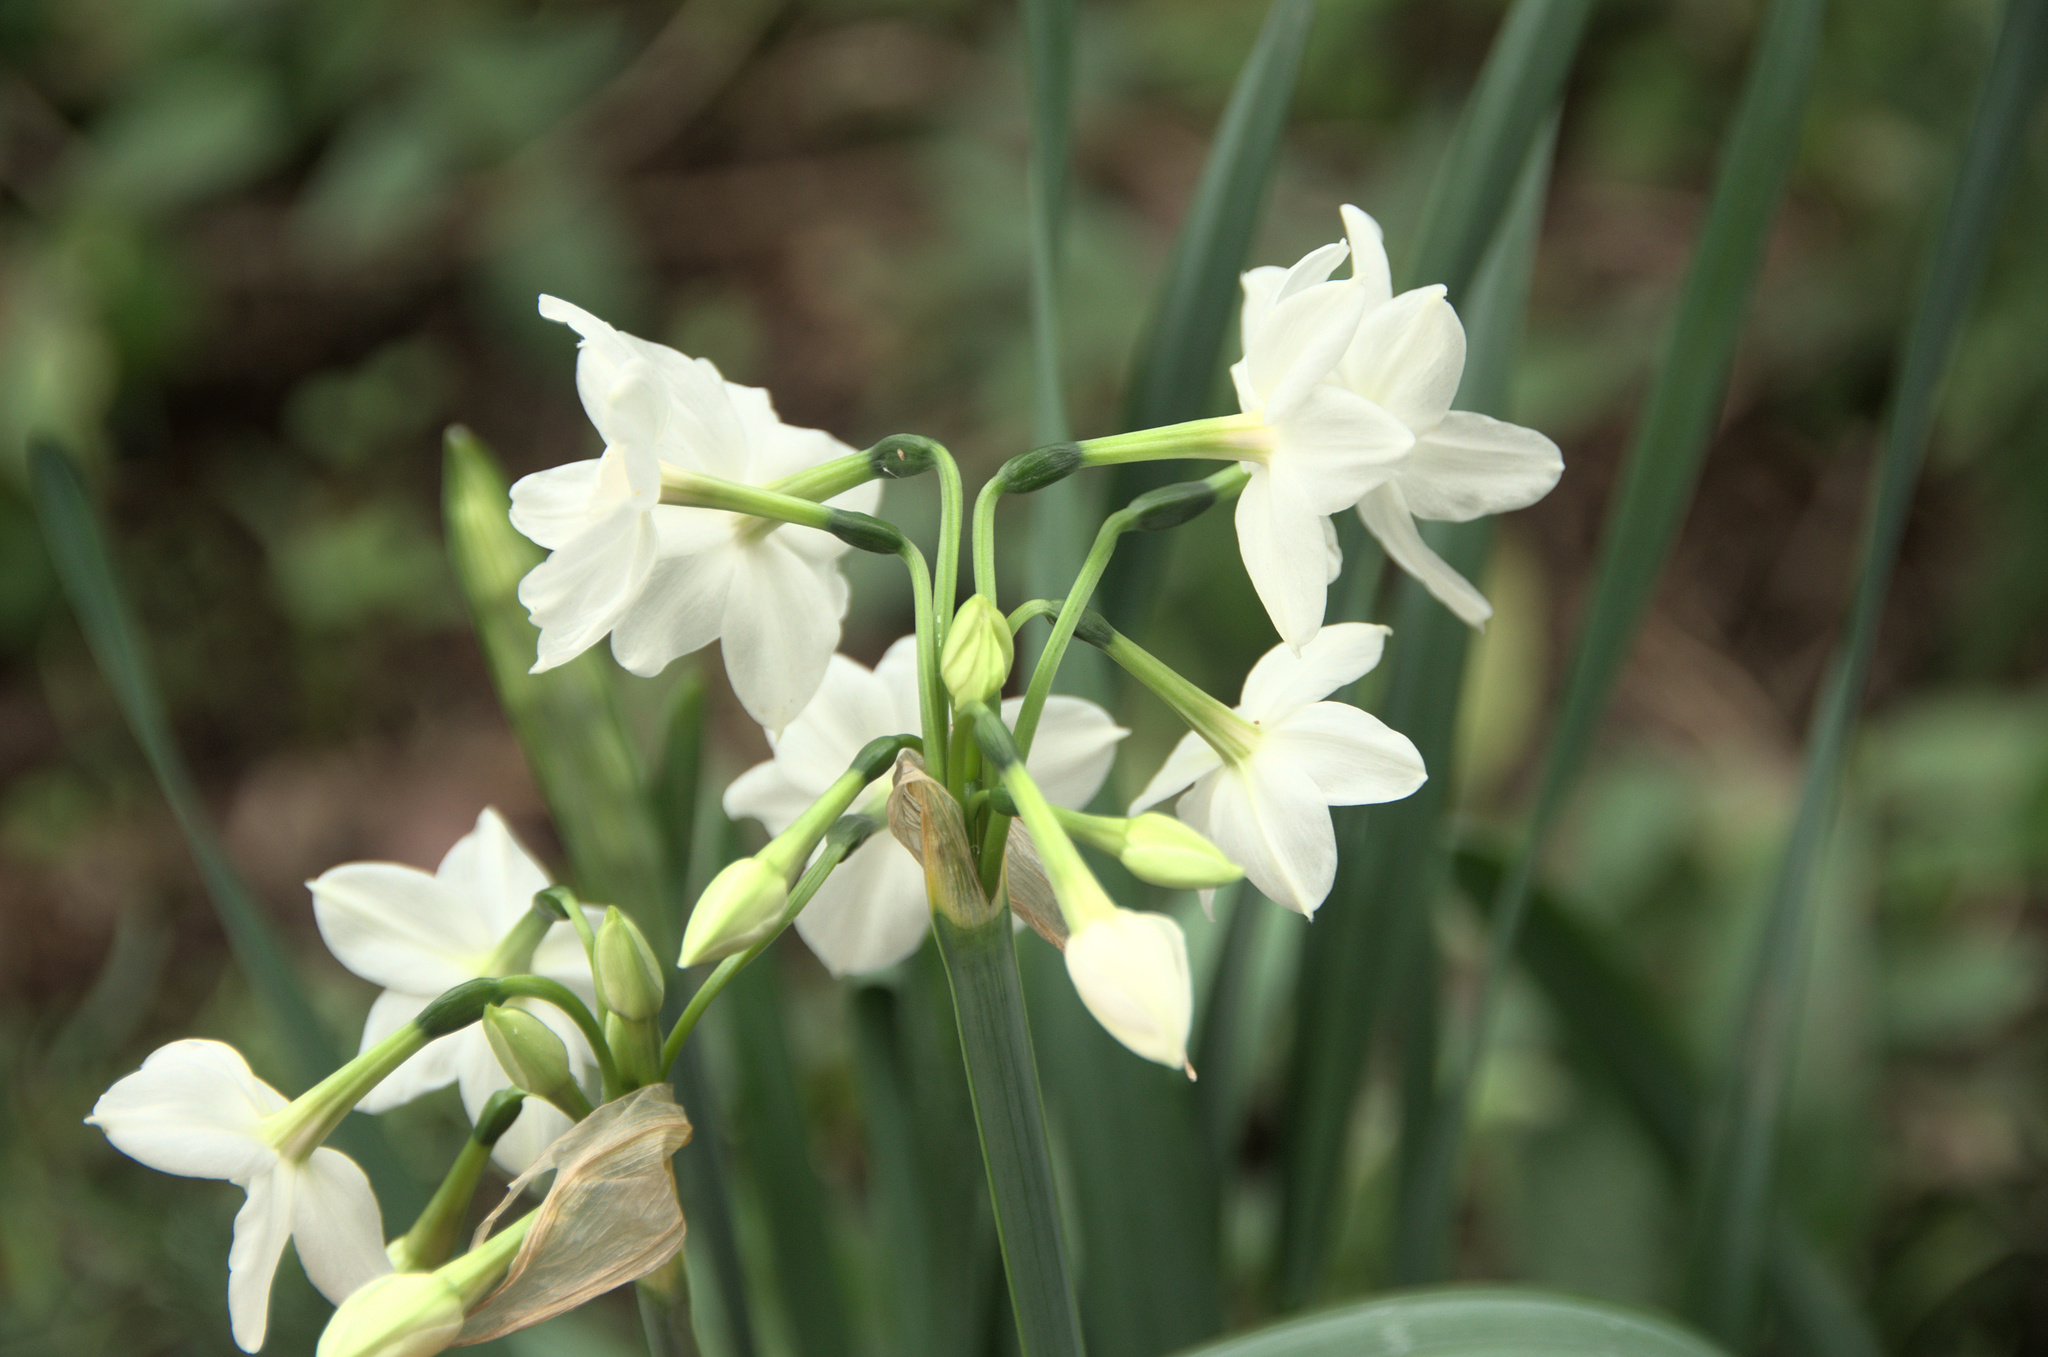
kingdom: Plantae
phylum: Tracheophyta
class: Liliopsida
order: Asparagales
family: Amaryllidaceae
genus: Narcissus
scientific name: Narcissus papyraceus
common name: Paper-white daffodil
